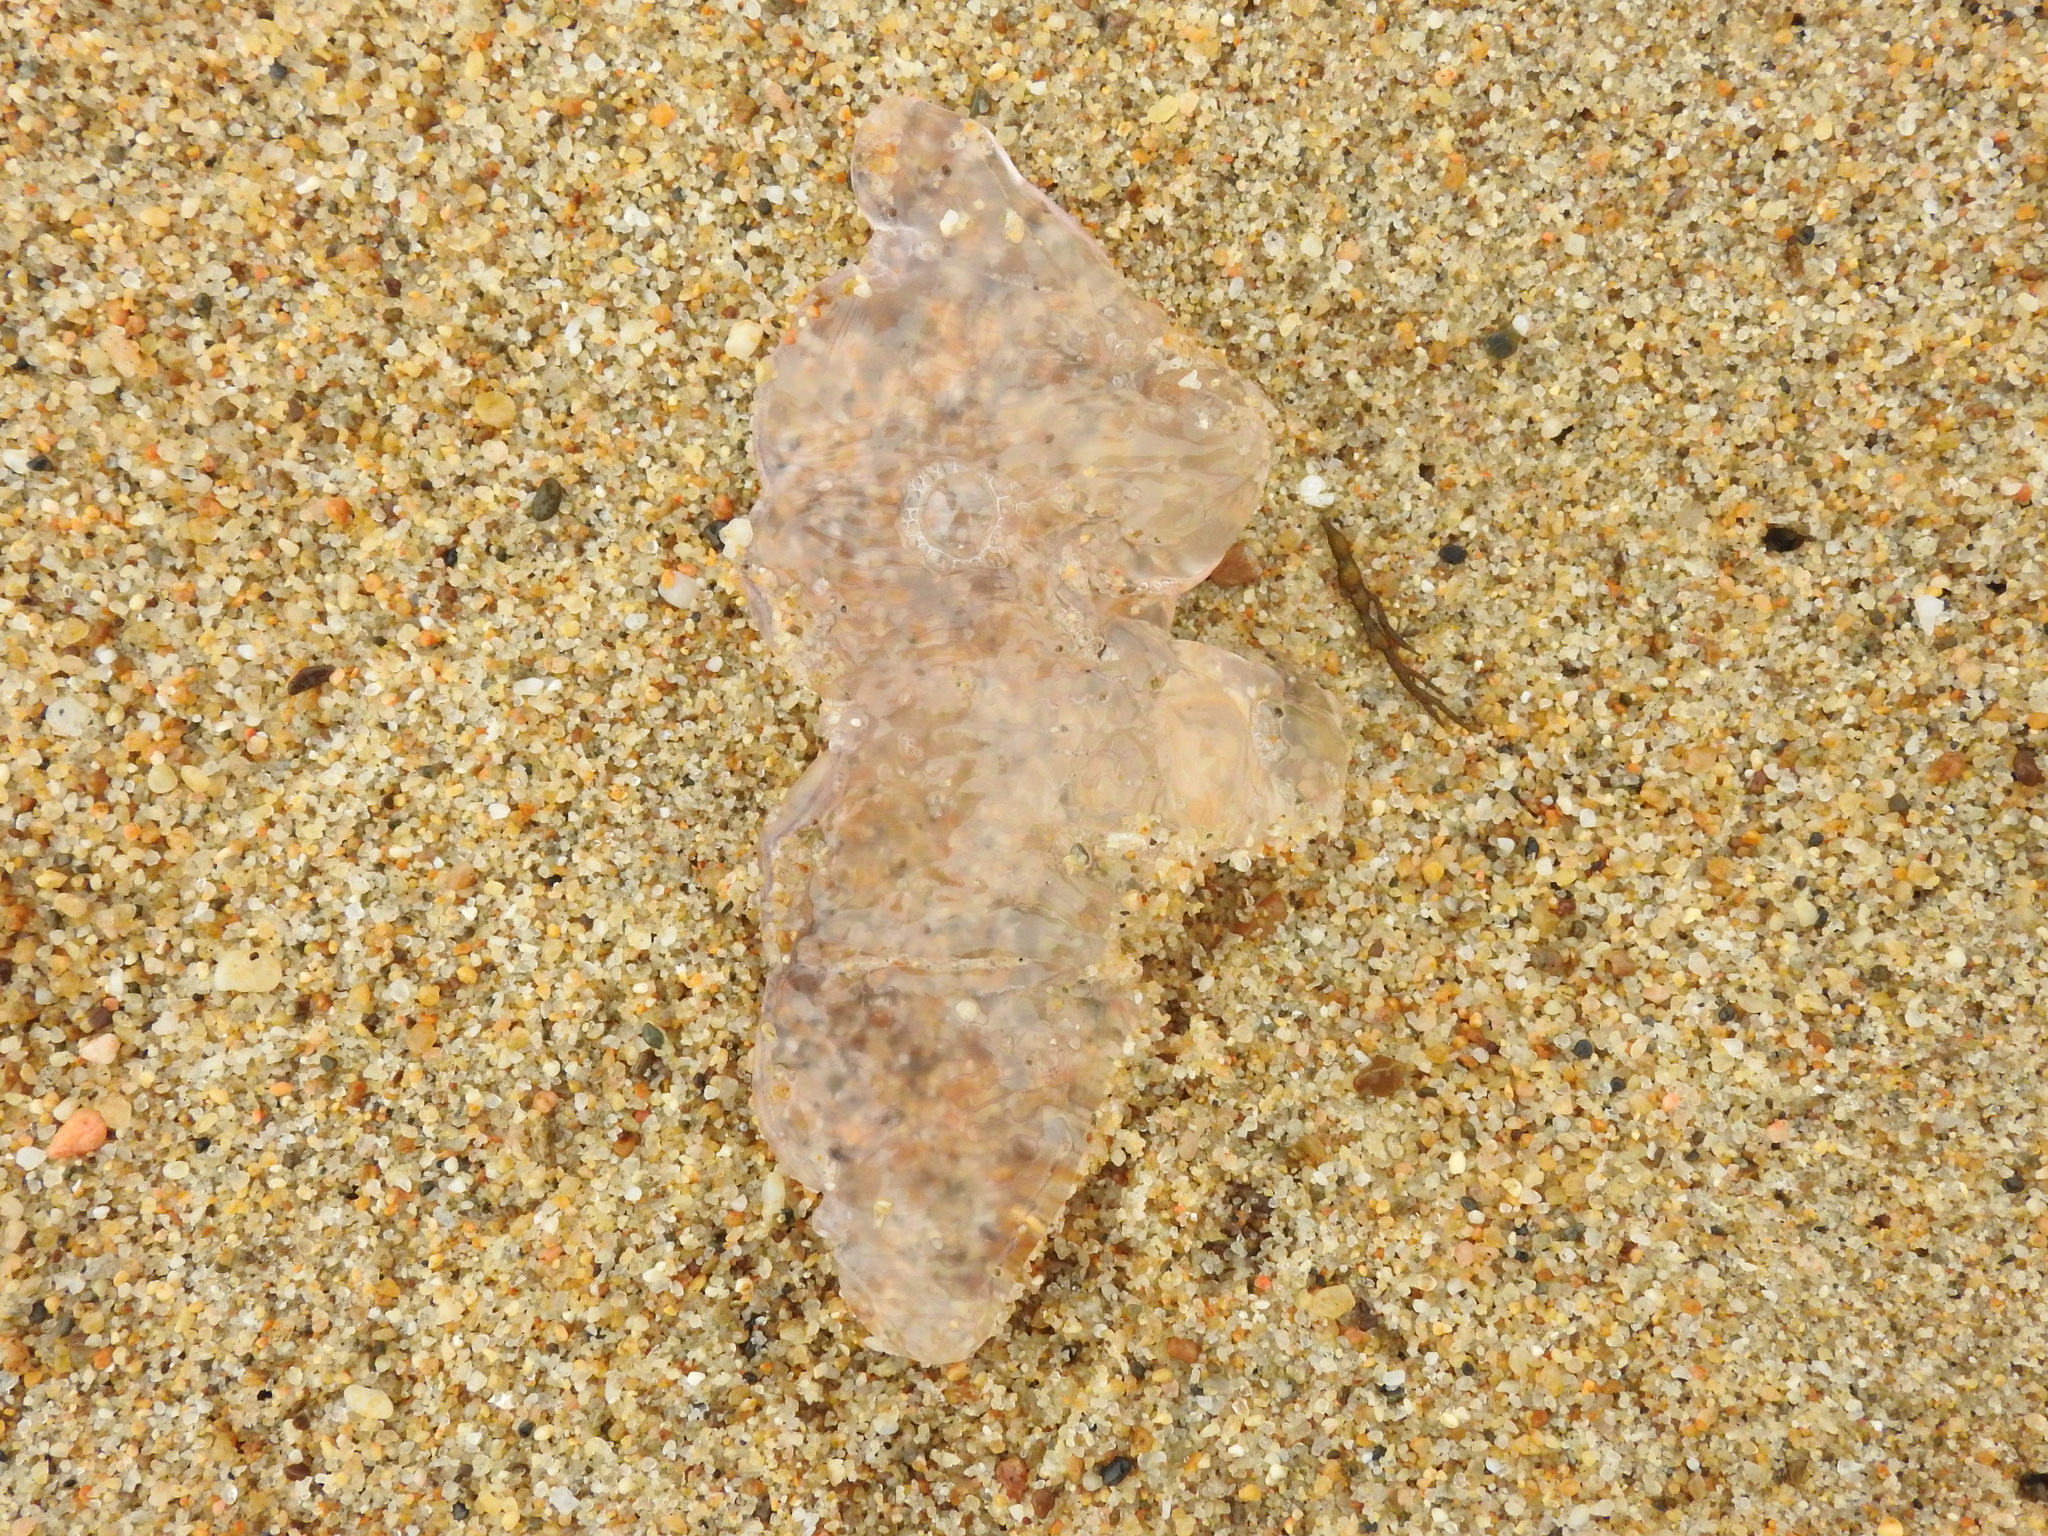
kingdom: Animalia
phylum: Chordata
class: Thaliacea
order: Pyrosomatida
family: Pyrosomatidae
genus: Pyrosoma
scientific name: Pyrosoma atlanticum
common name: Atlantic pyrosomes
